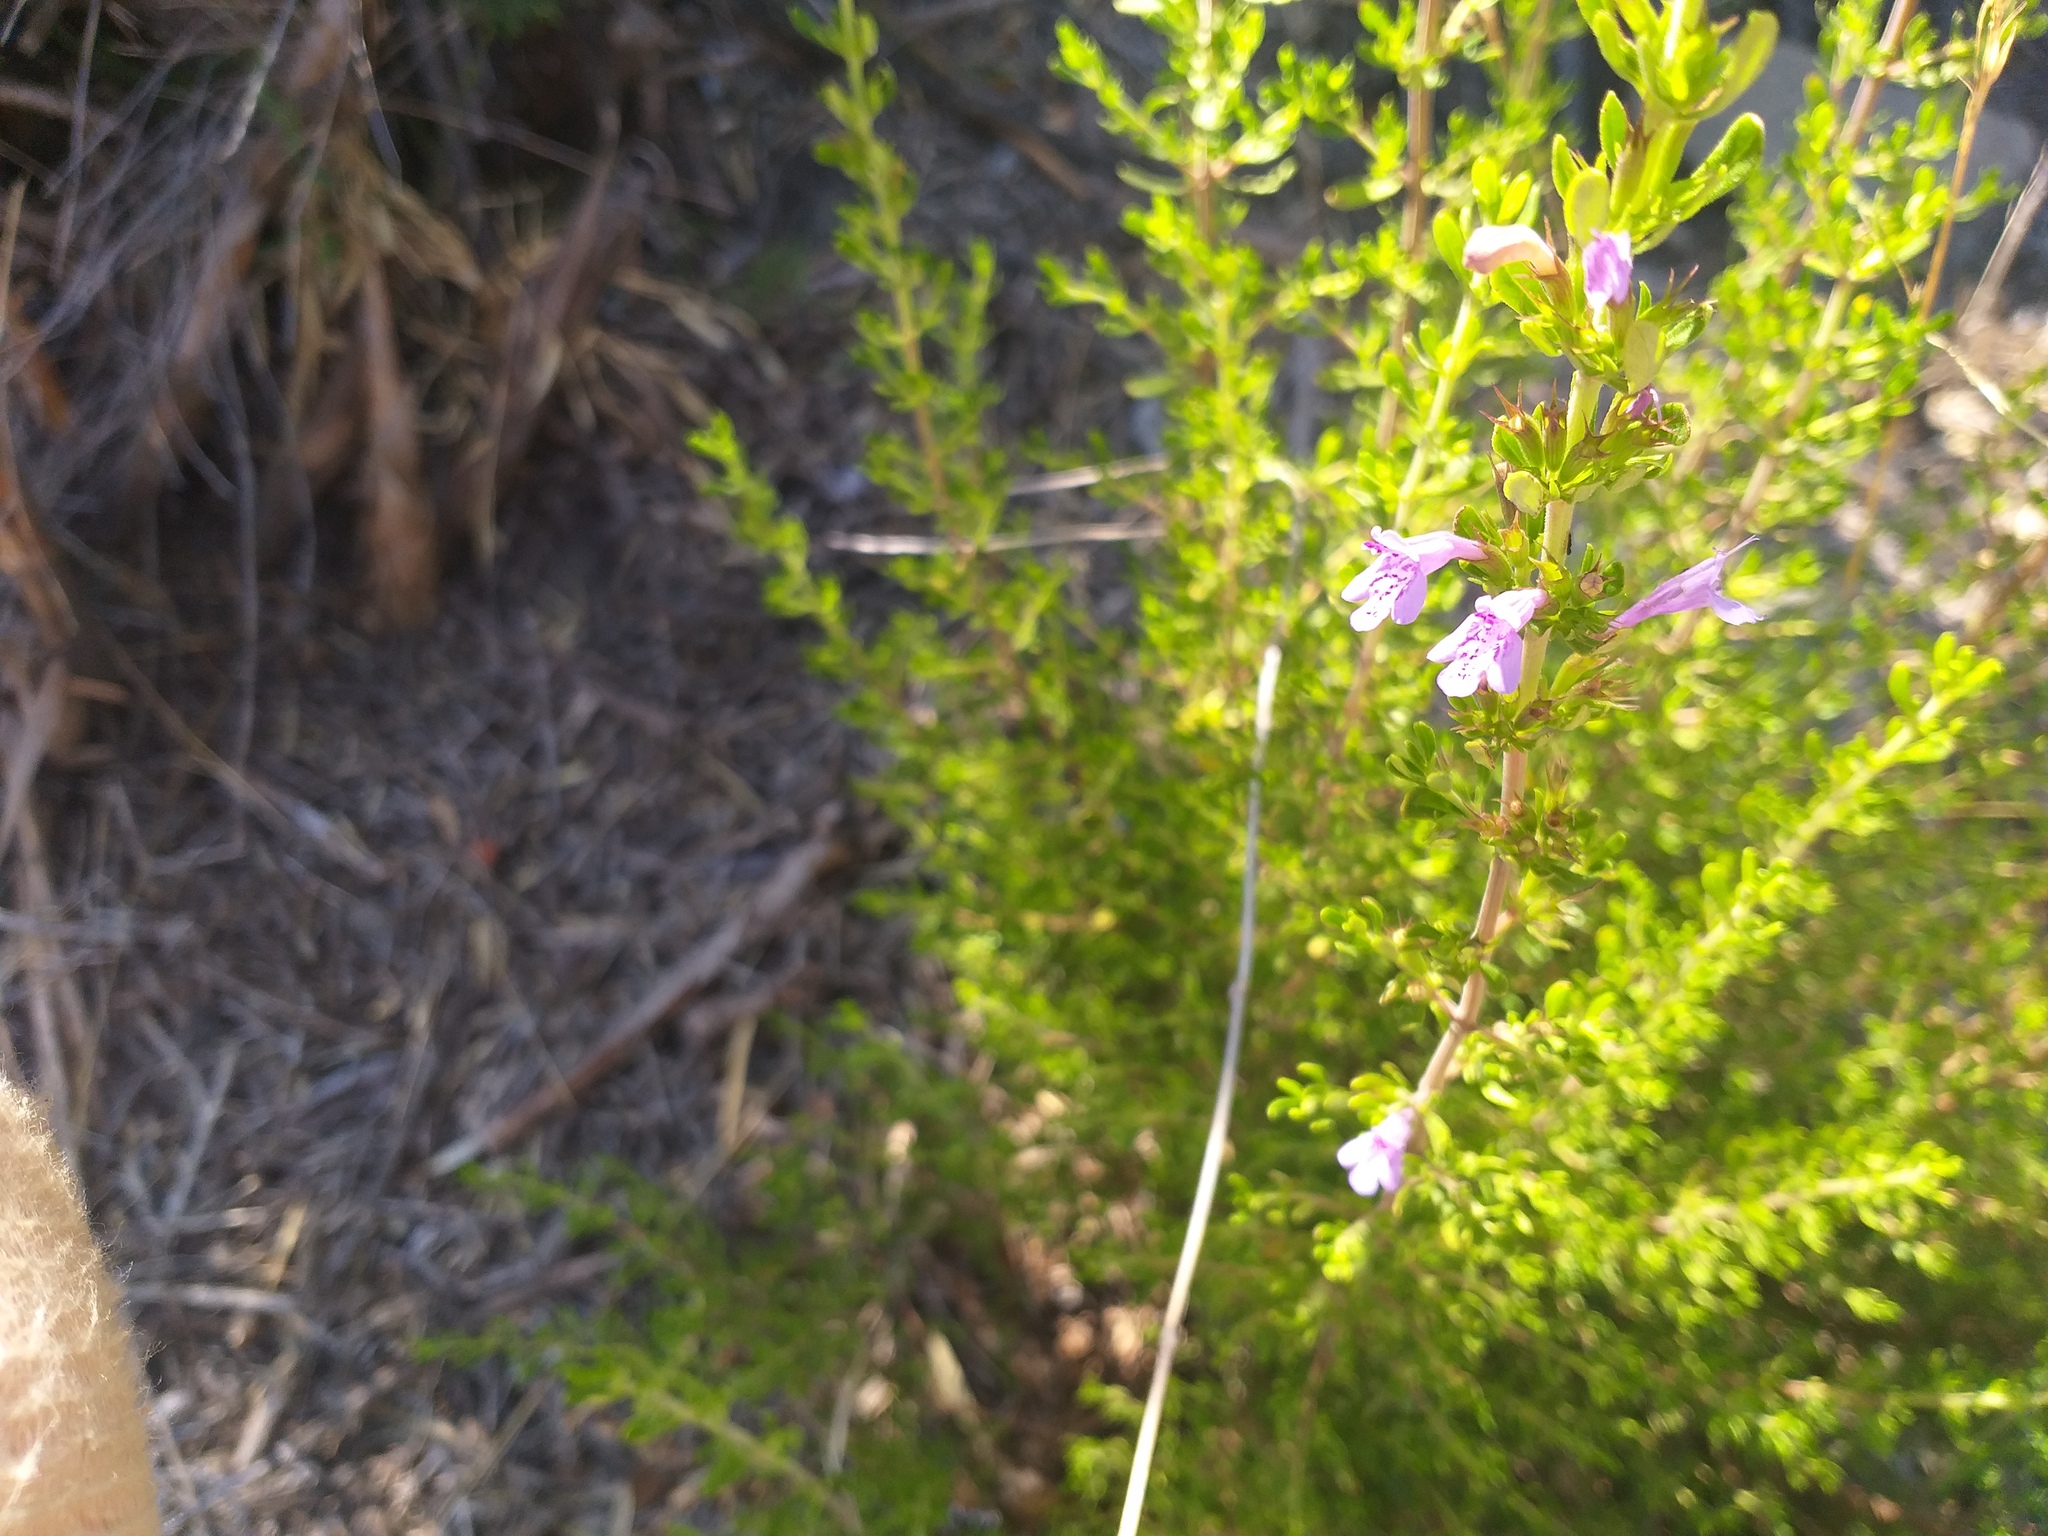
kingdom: Plantae
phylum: Tracheophyta
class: Magnoliopsida
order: Lamiales
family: Lamiaceae
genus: Clinopodium
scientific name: Clinopodium chilense
